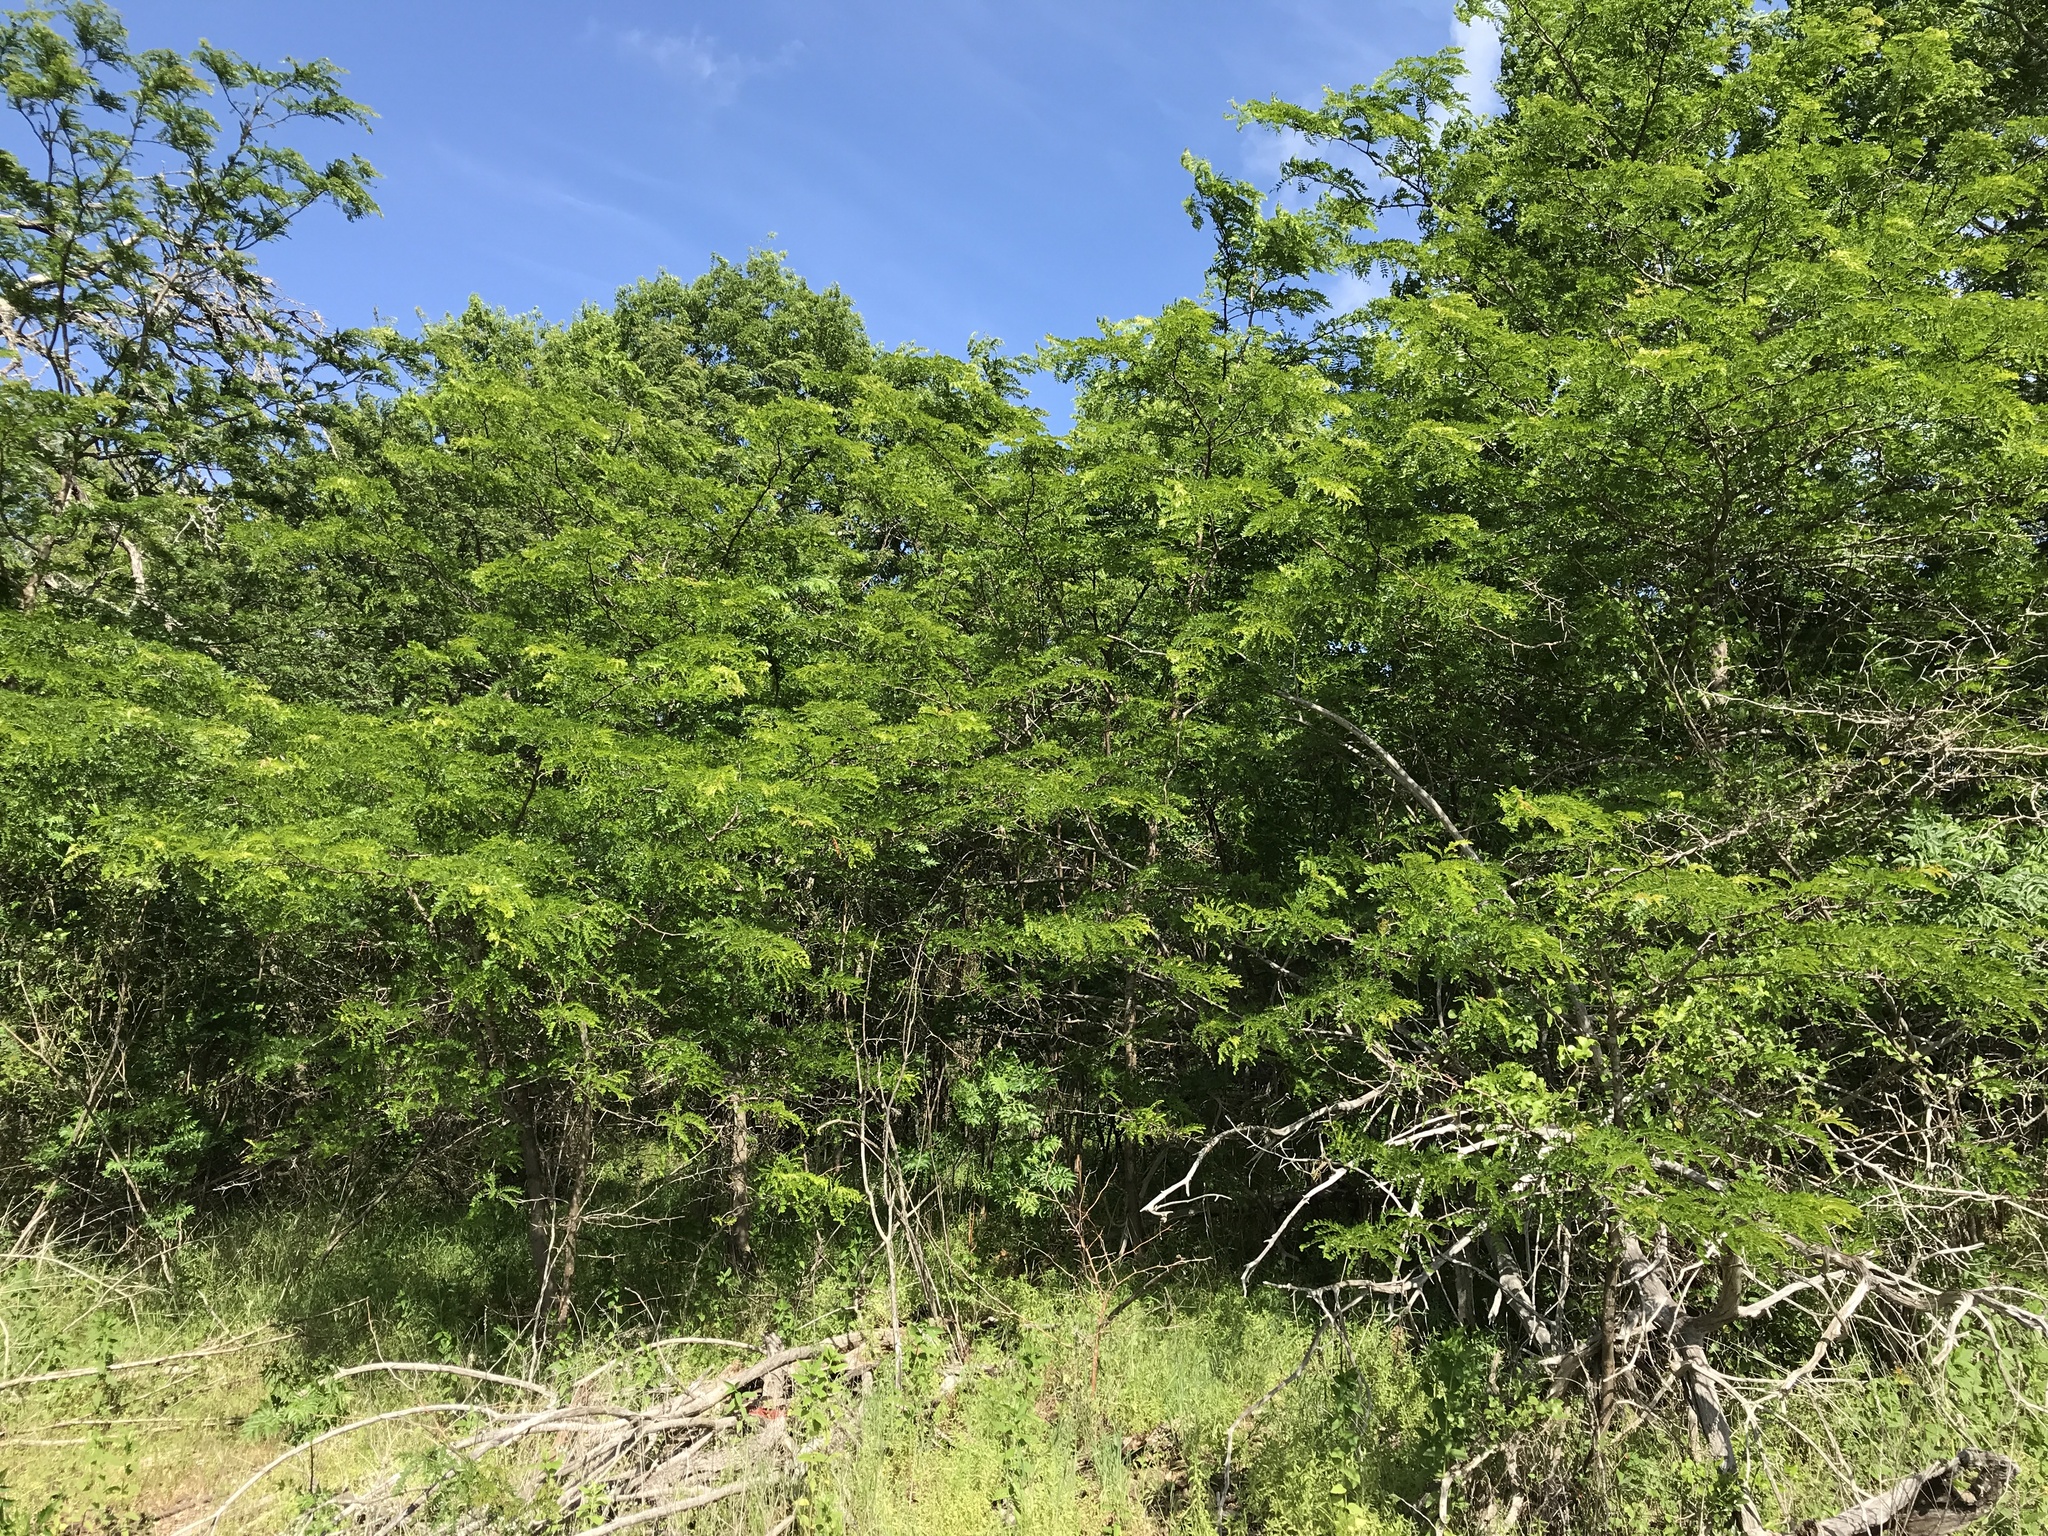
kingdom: Plantae
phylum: Tracheophyta
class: Magnoliopsida
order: Fabales
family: Fabaceae
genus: Gleditsia
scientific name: Gleditsia triacanthos
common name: Common honeylocust
